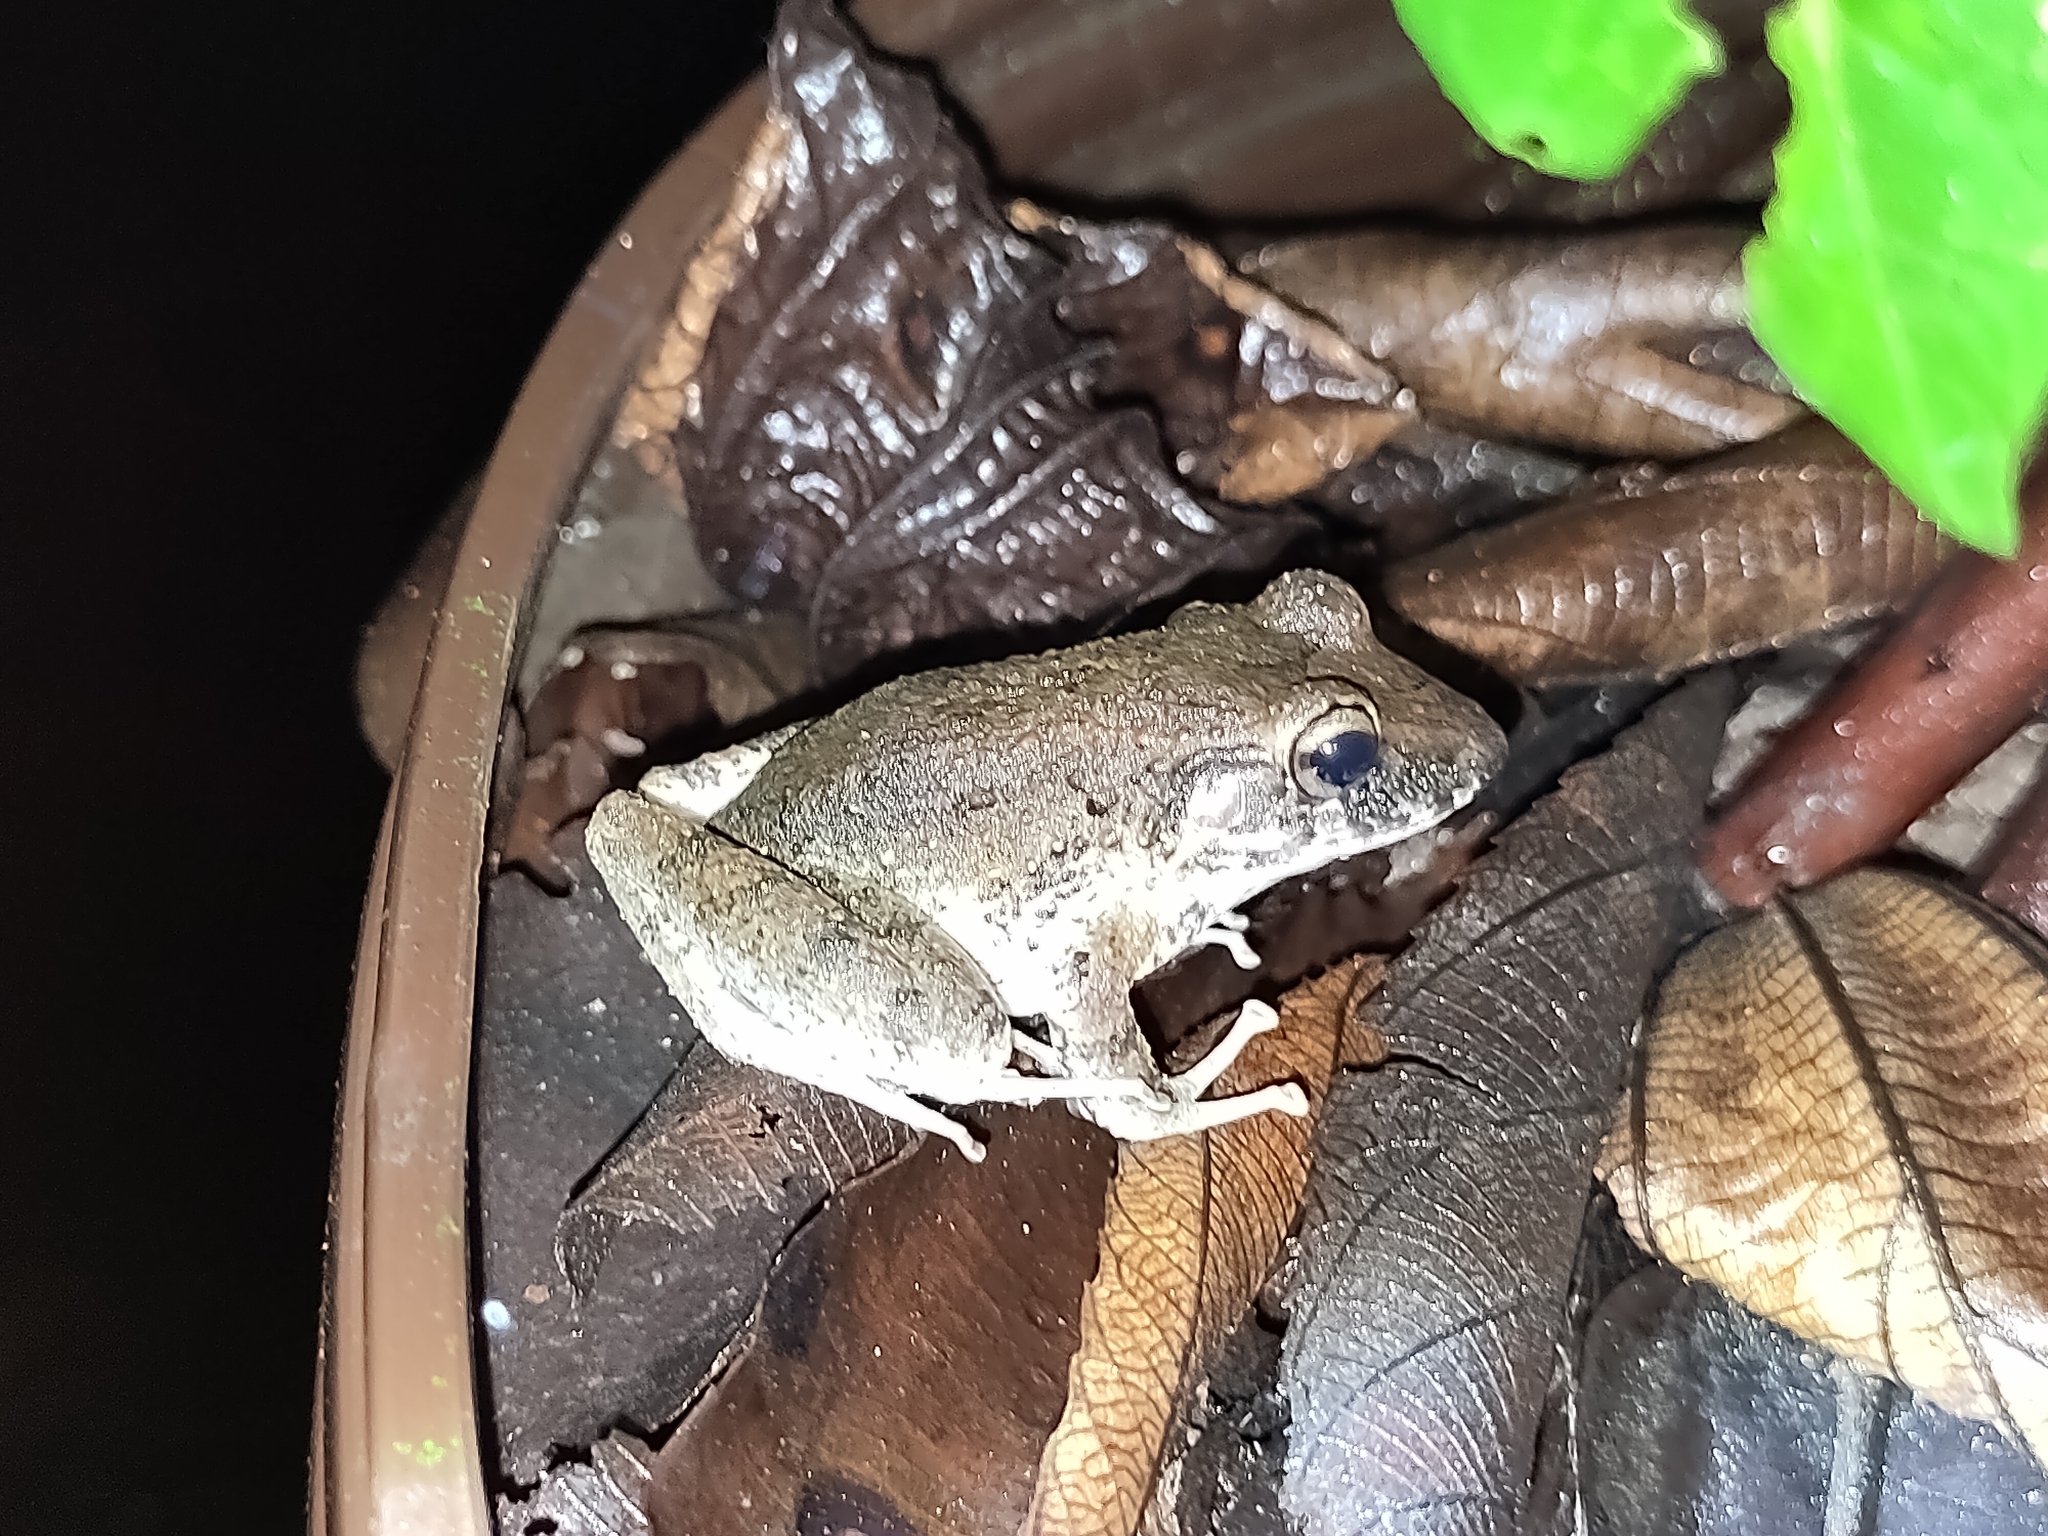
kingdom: Animalia
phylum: Chordata
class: Amphibia
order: Anura
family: Craugastoridae
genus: Craugastor
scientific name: Craugastor fitzingeri
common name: Fitzinger's robber frog
